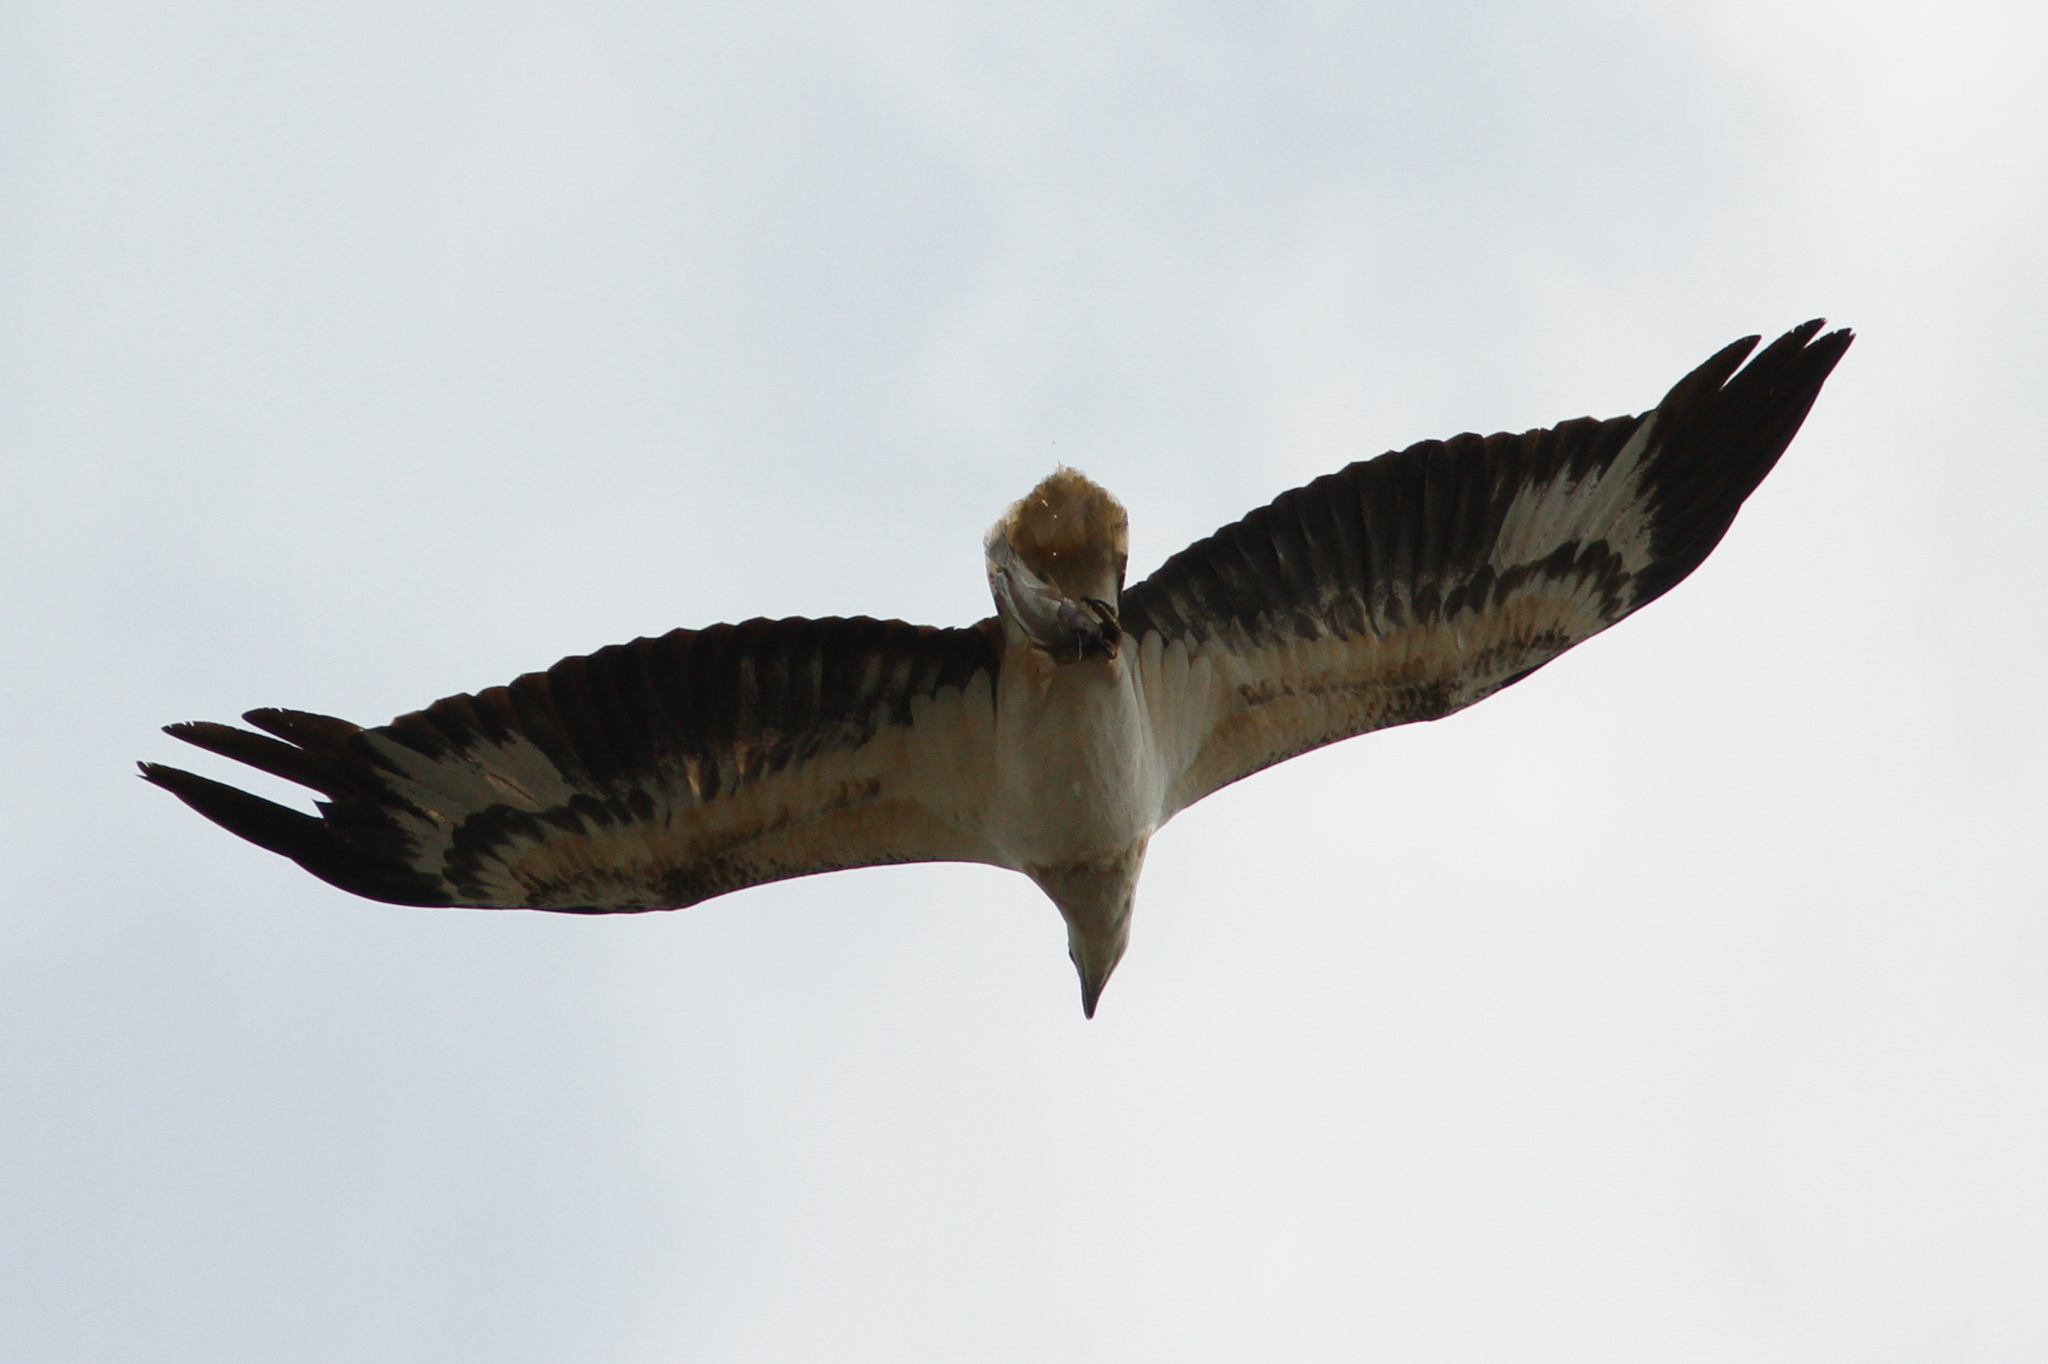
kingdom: Animalia
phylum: Chordata
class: Aves
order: Accipitriformes
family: Accipitridae
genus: Haliaeetus
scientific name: Haliaeetus leucogaster
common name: White-bellied sea eagle
